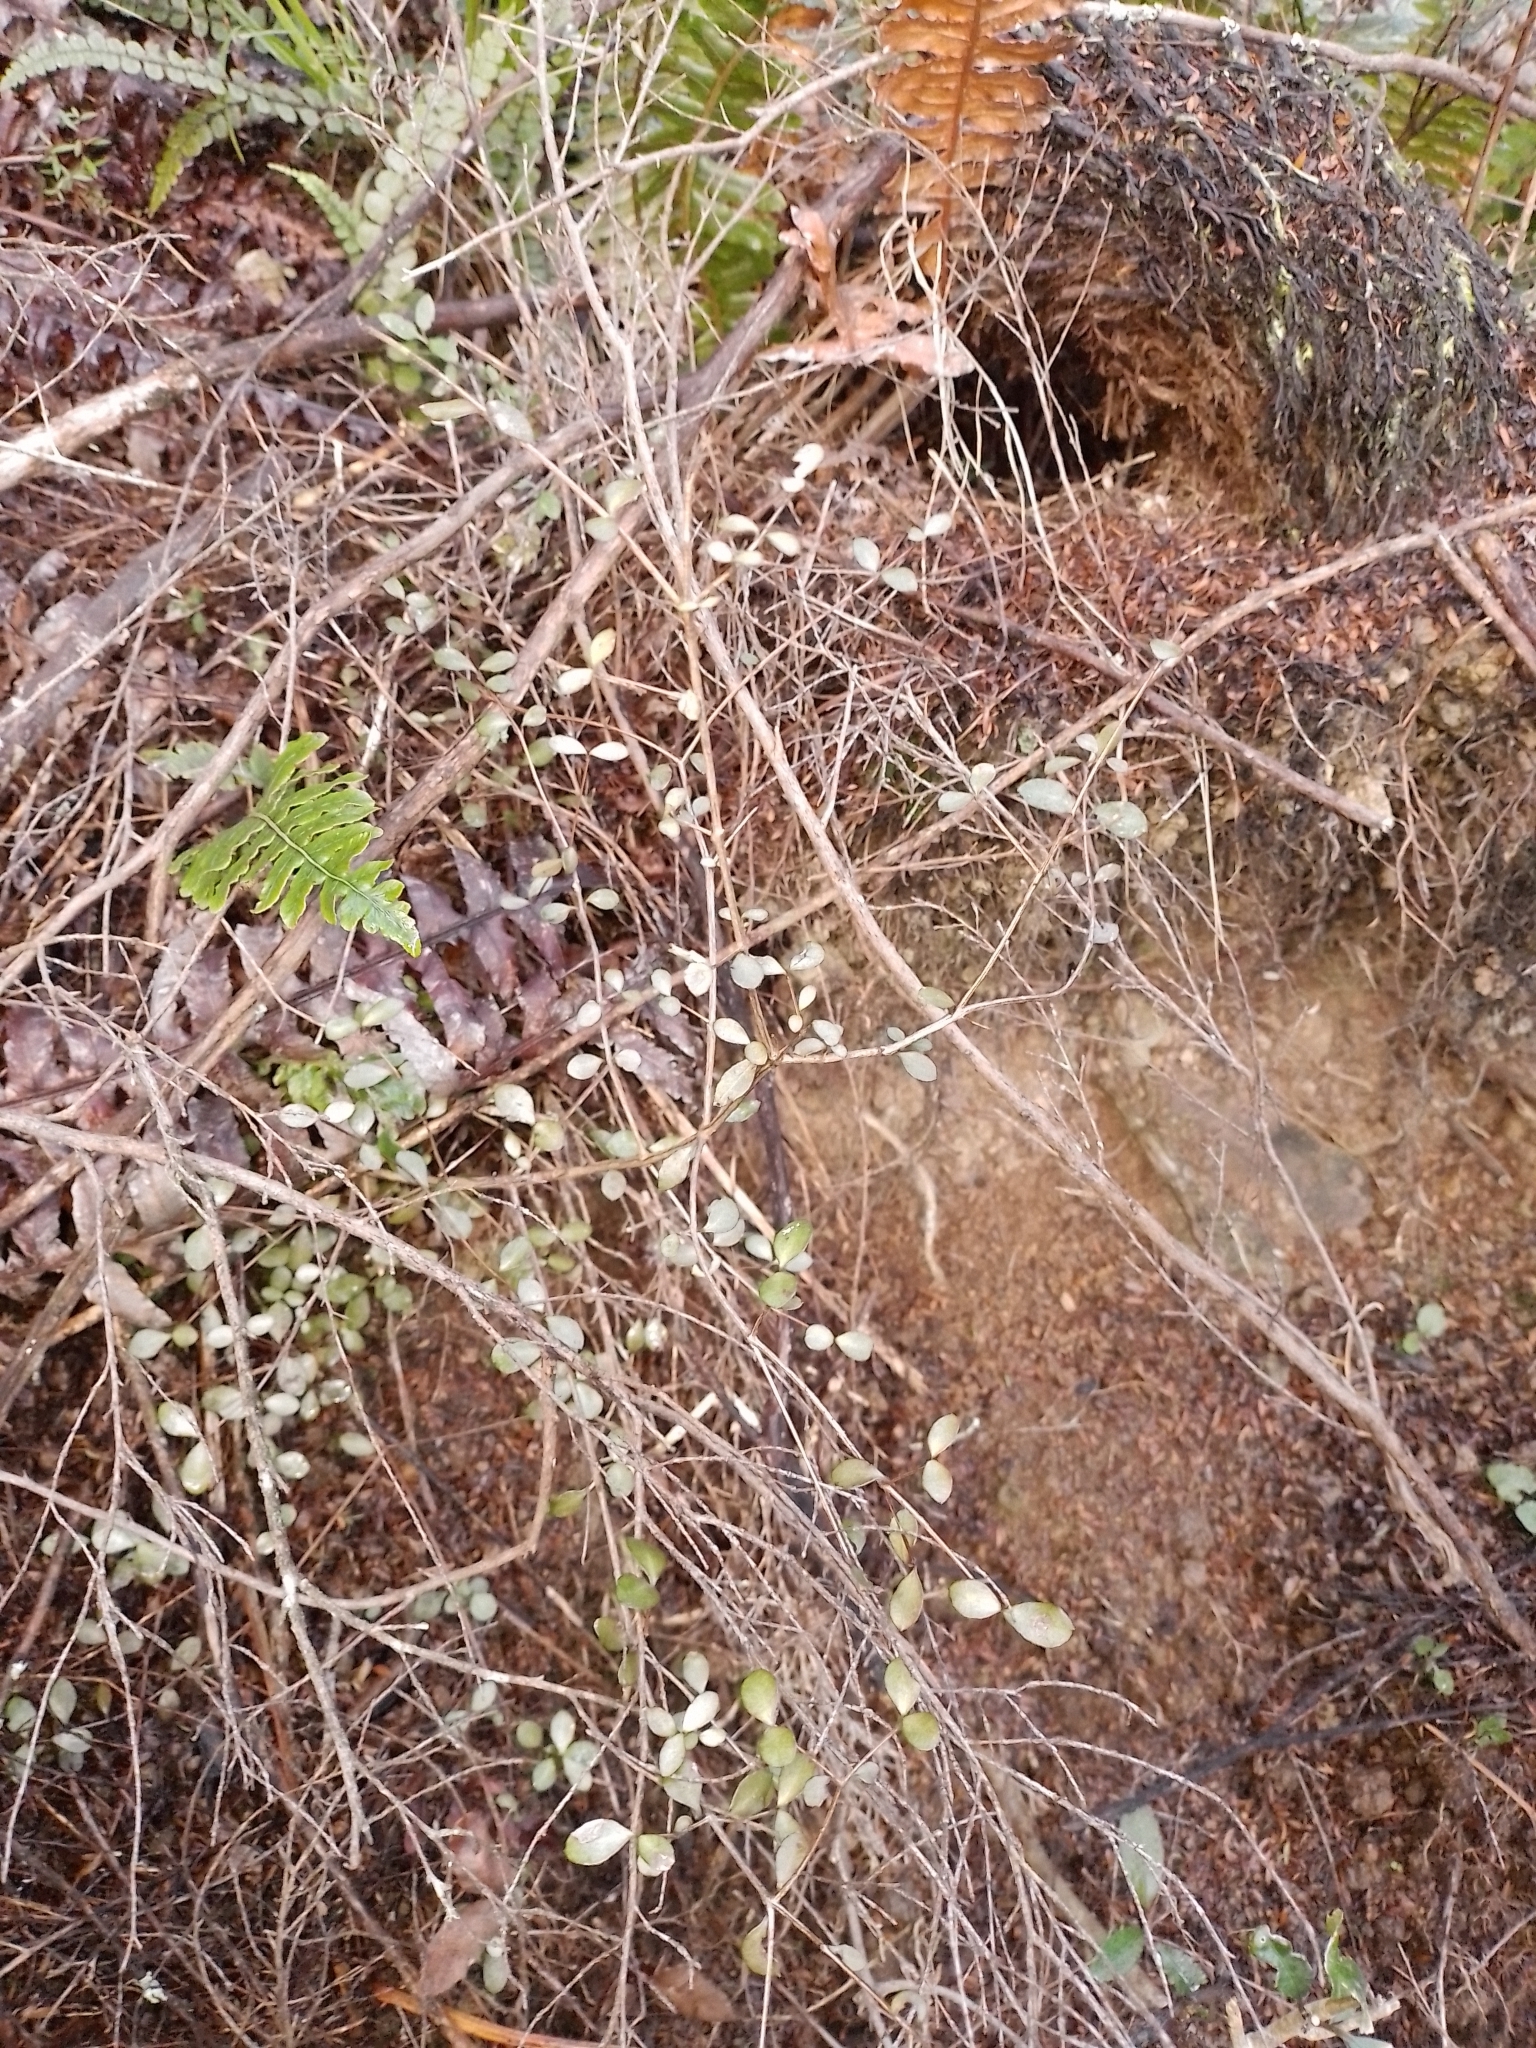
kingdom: Plantae
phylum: Tracheophyta
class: Magnoliopsida
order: Myrtales
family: Myrtaceae
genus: Neomyrtus
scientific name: Neomyrtus pedunculata
